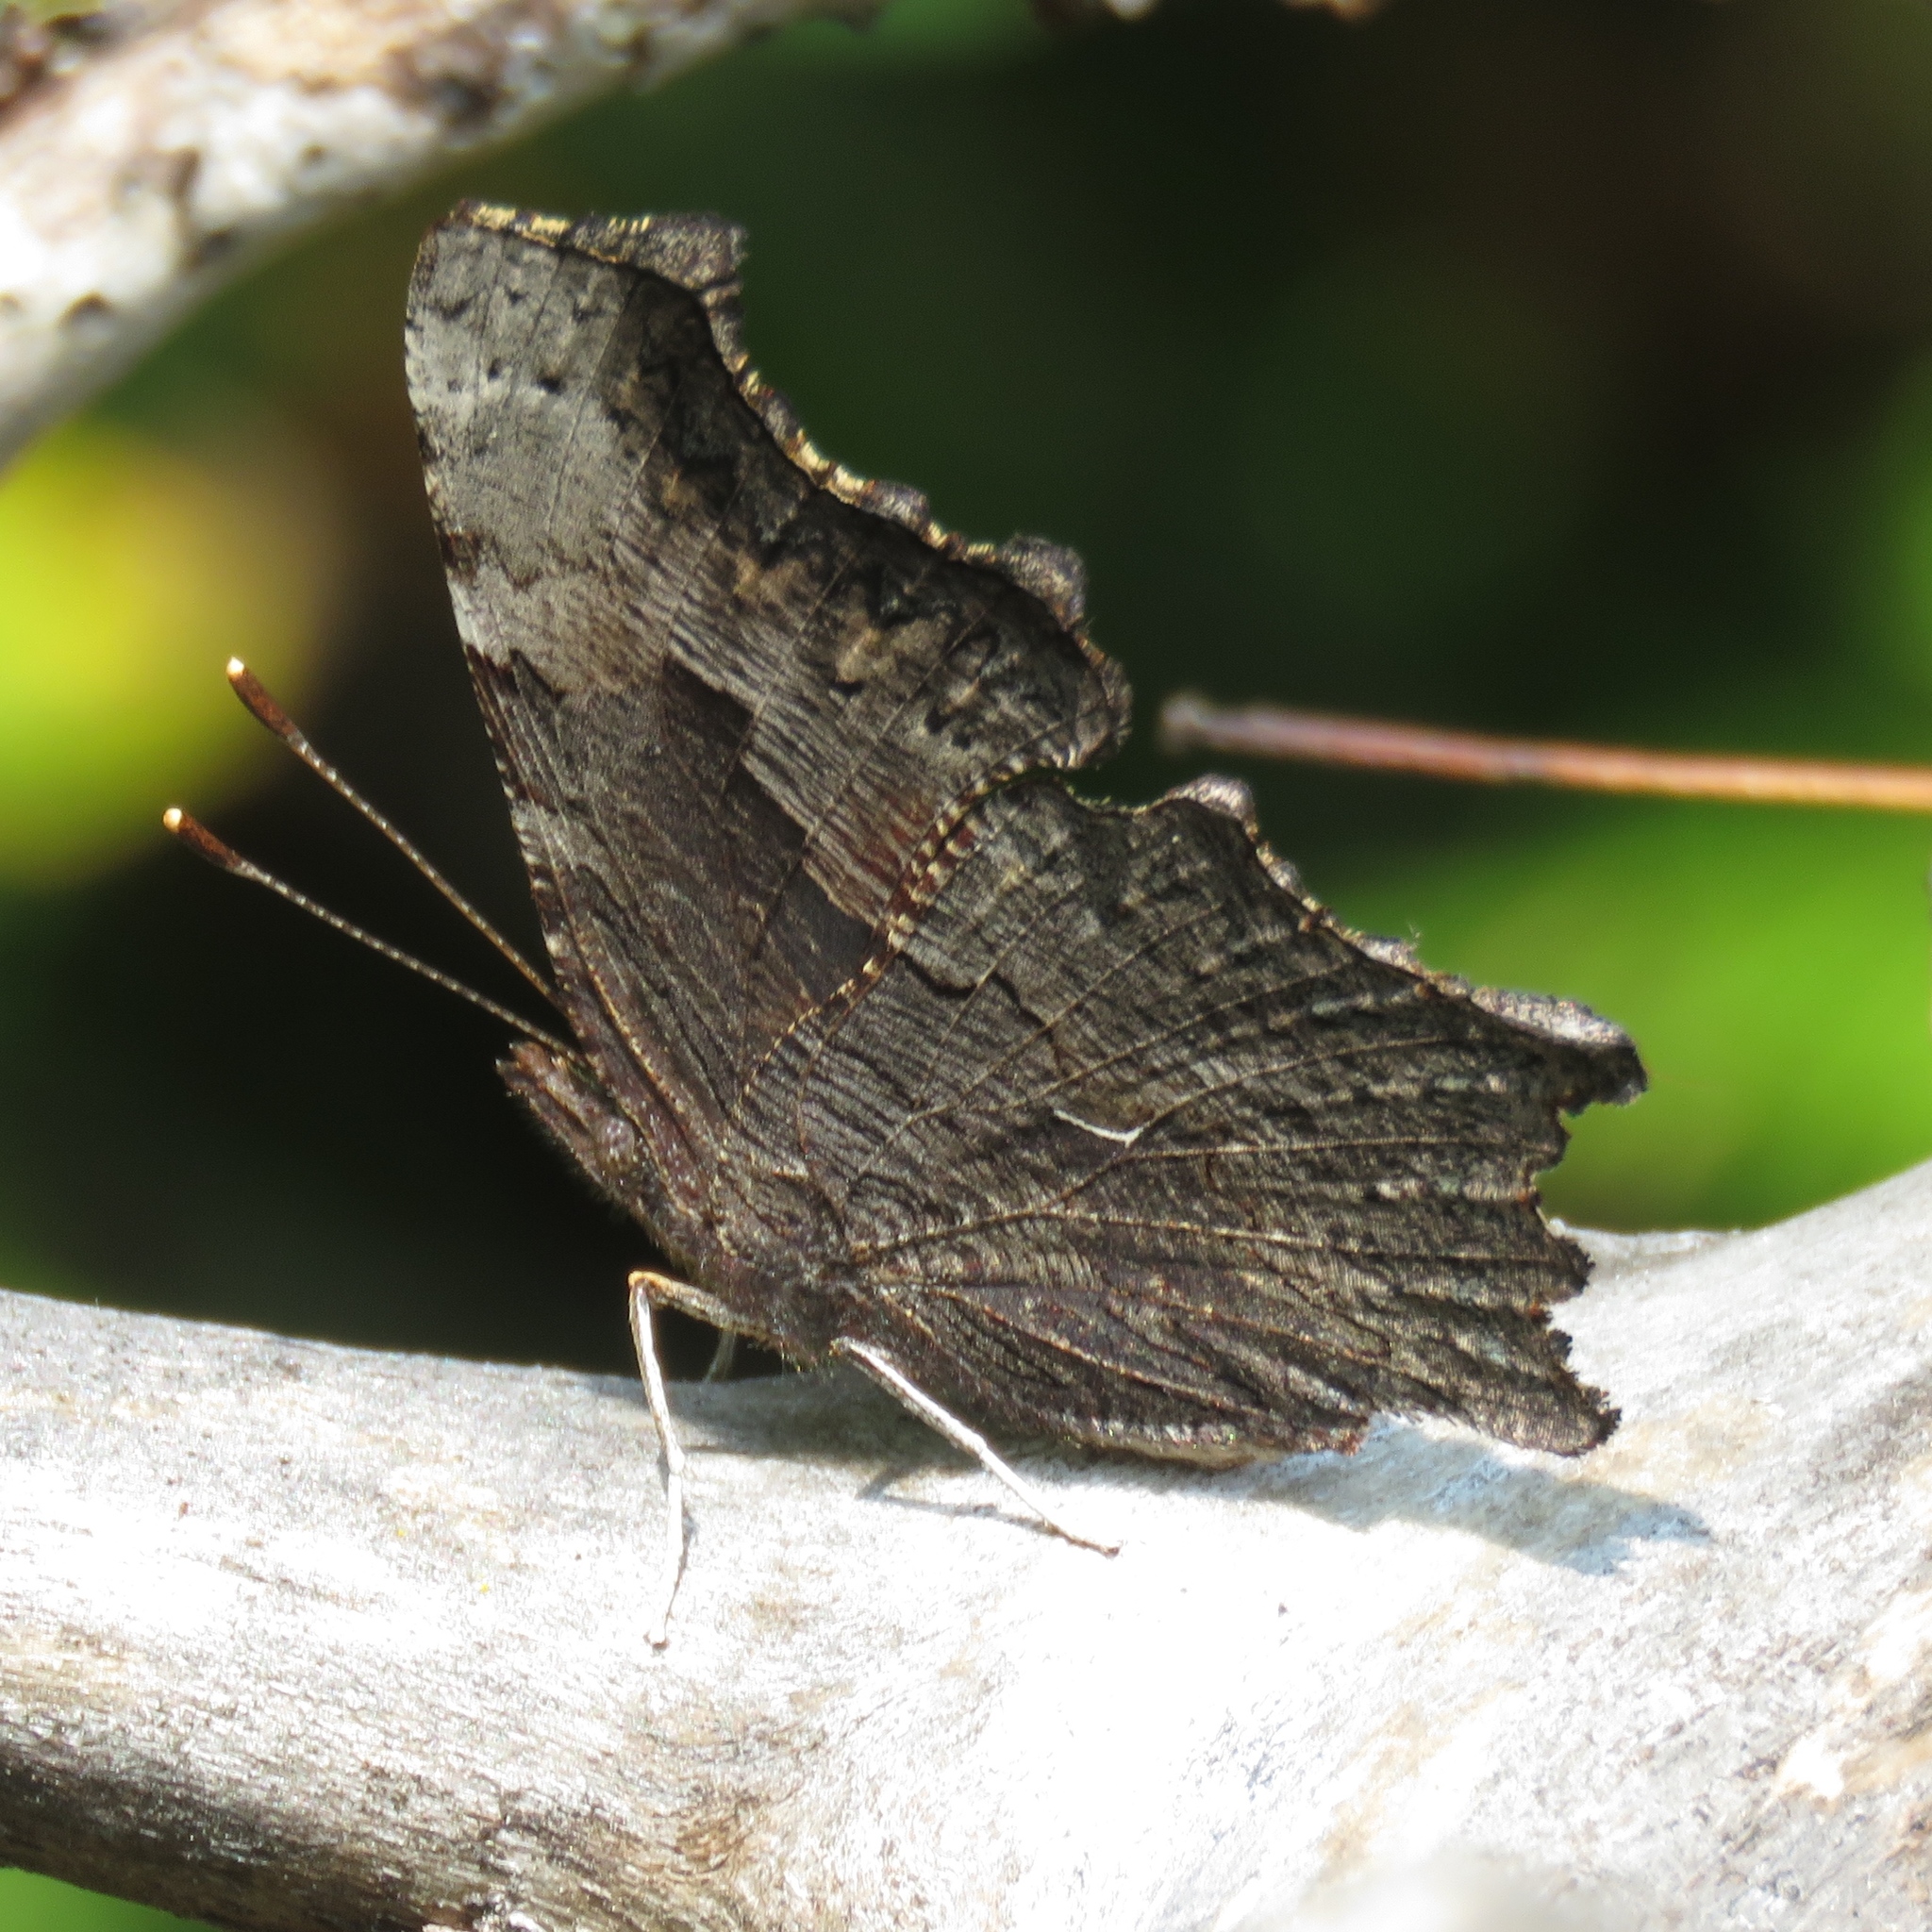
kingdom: Animalia
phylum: Arthropoda
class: Insecta
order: Lepidoptera
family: Nymphalidae
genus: Polygonia
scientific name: Polygonia progne
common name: Gray comma
